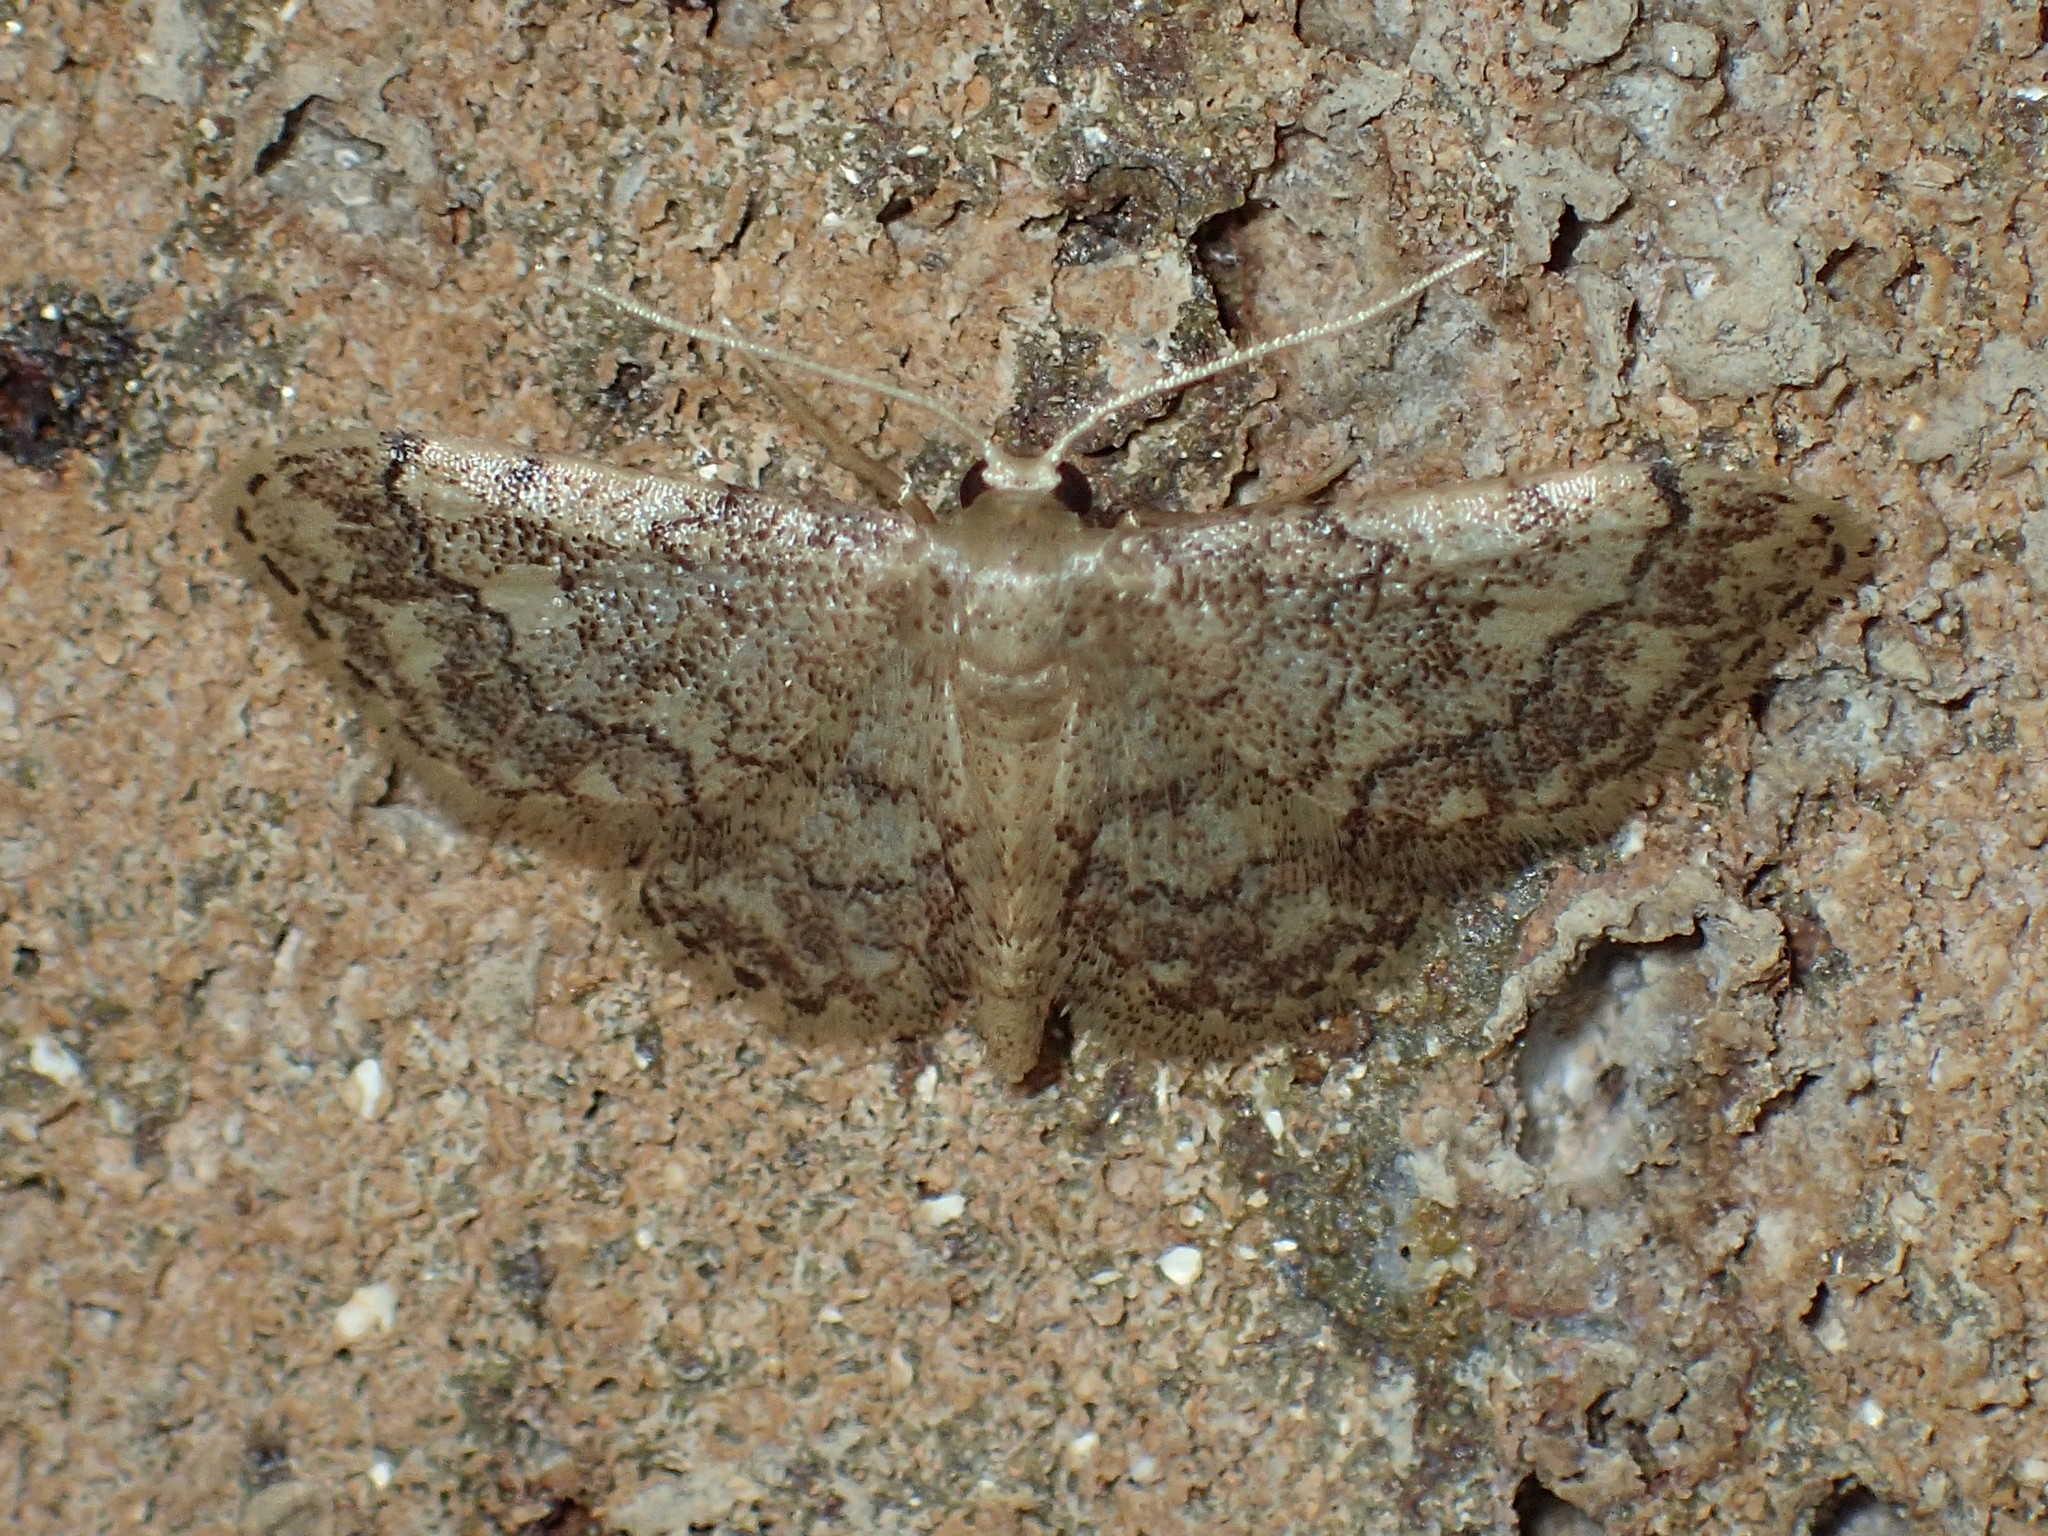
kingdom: Animalia
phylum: Arthropoda
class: Insecta
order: Lepidoptera
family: Geometridae
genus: Idaea
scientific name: Idaea celtima
